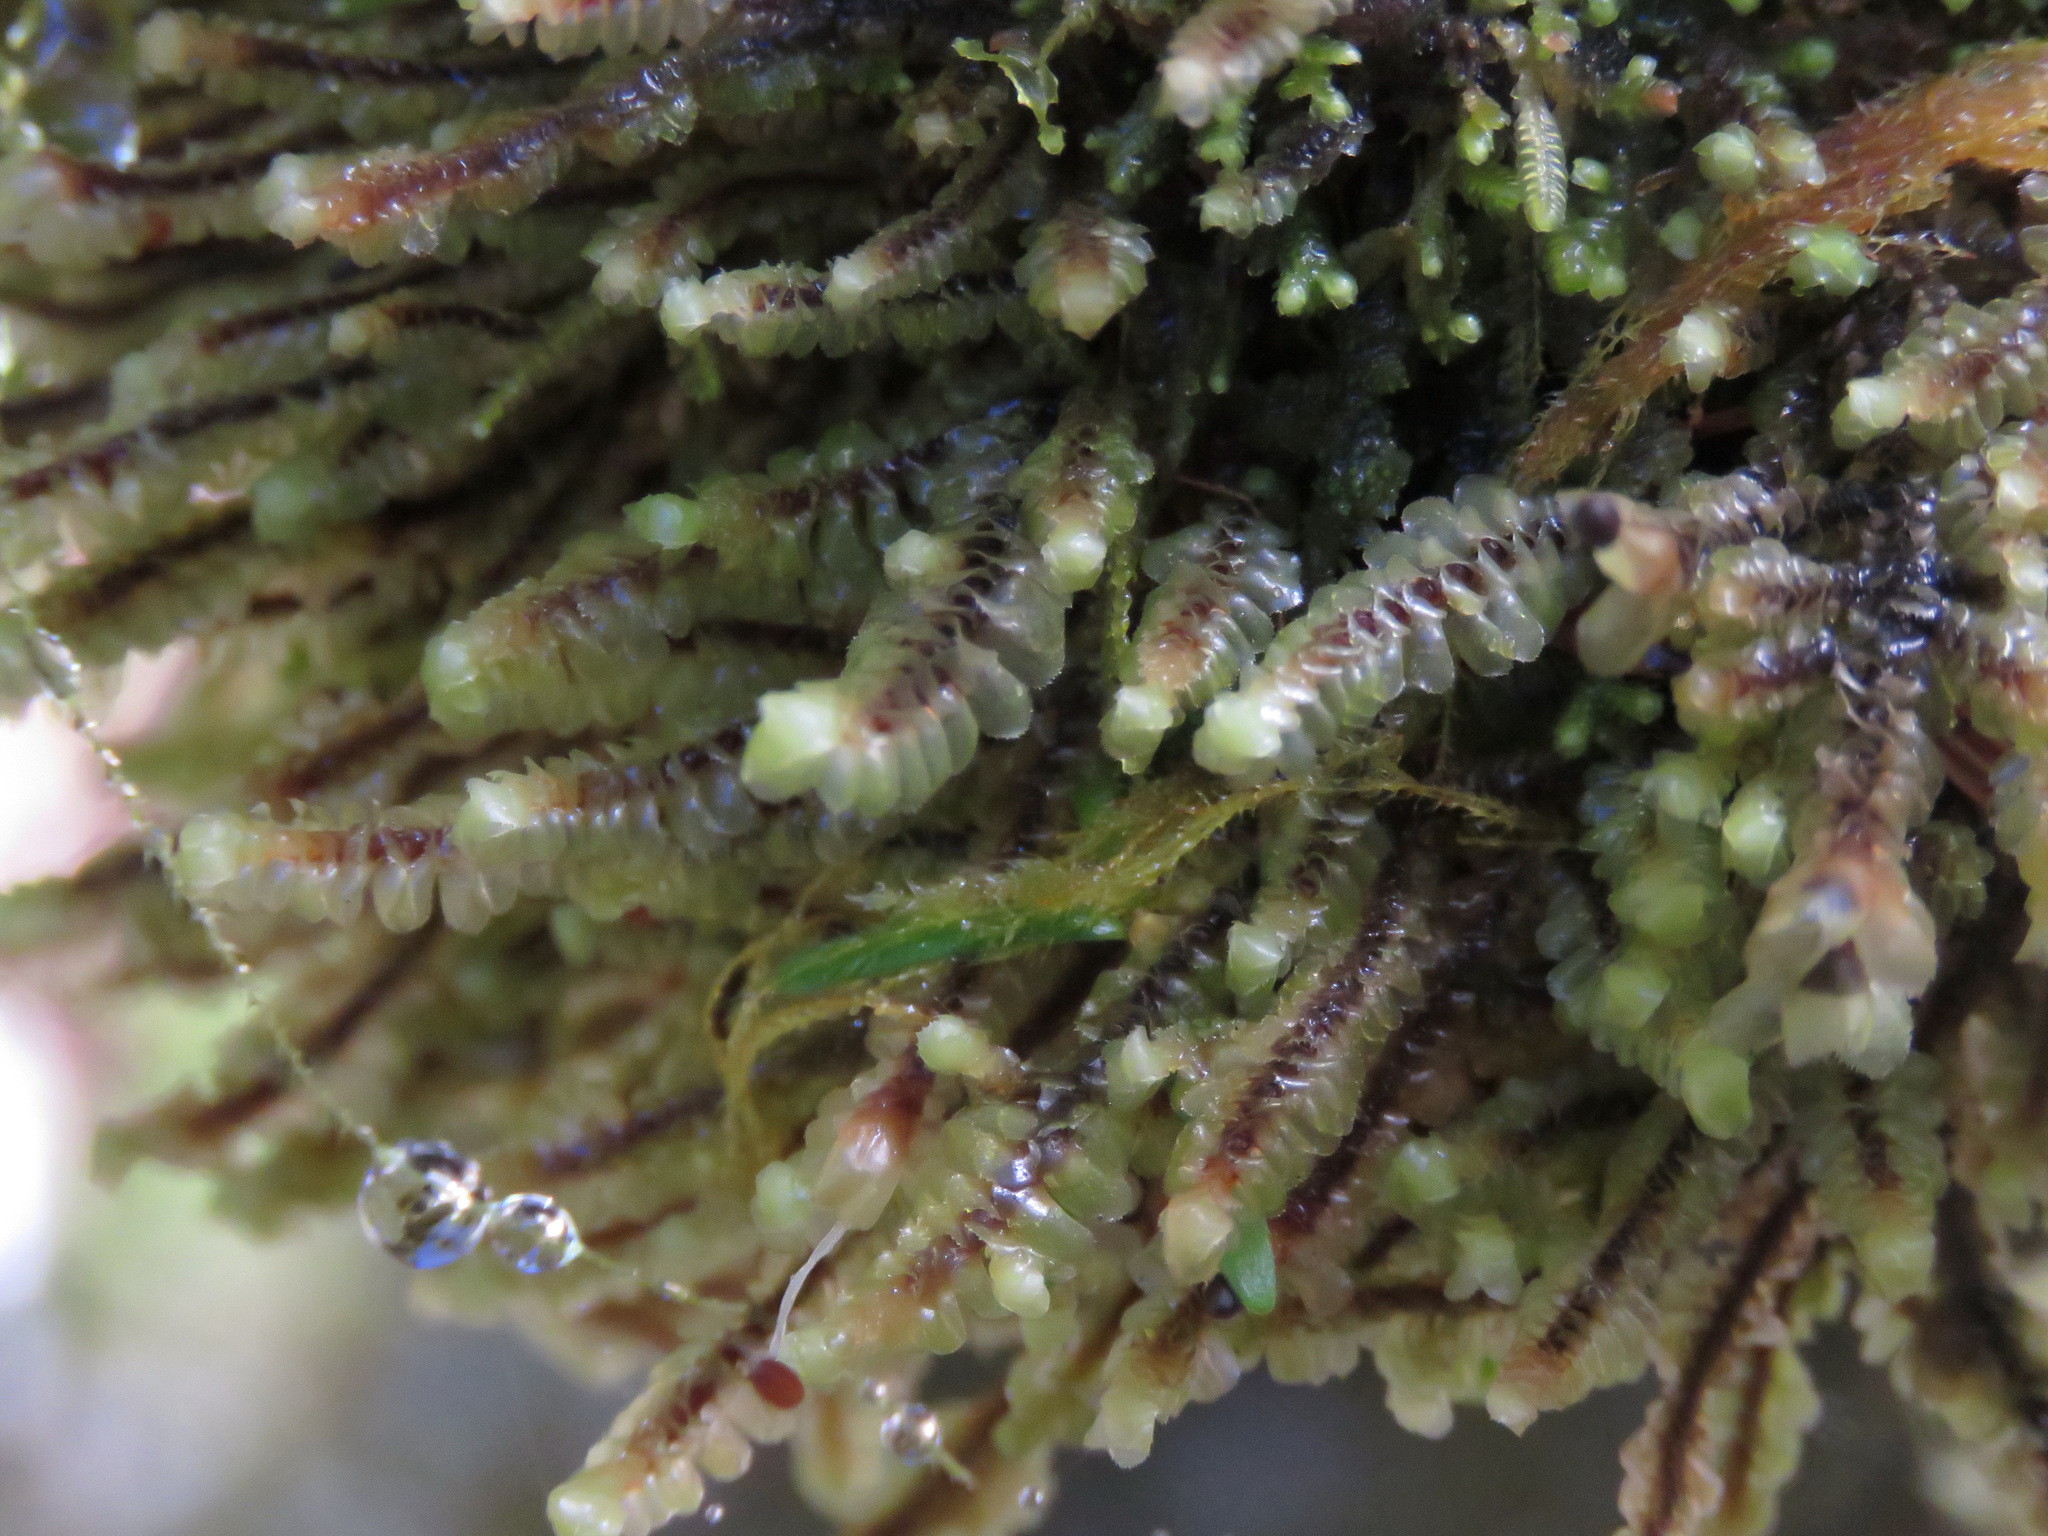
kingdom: Plantae
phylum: Marchantiophyta
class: Jungermanniopsida
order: Jungermanniales
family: Scapaniaceae
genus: Scapania
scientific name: Scapania bolanderi
